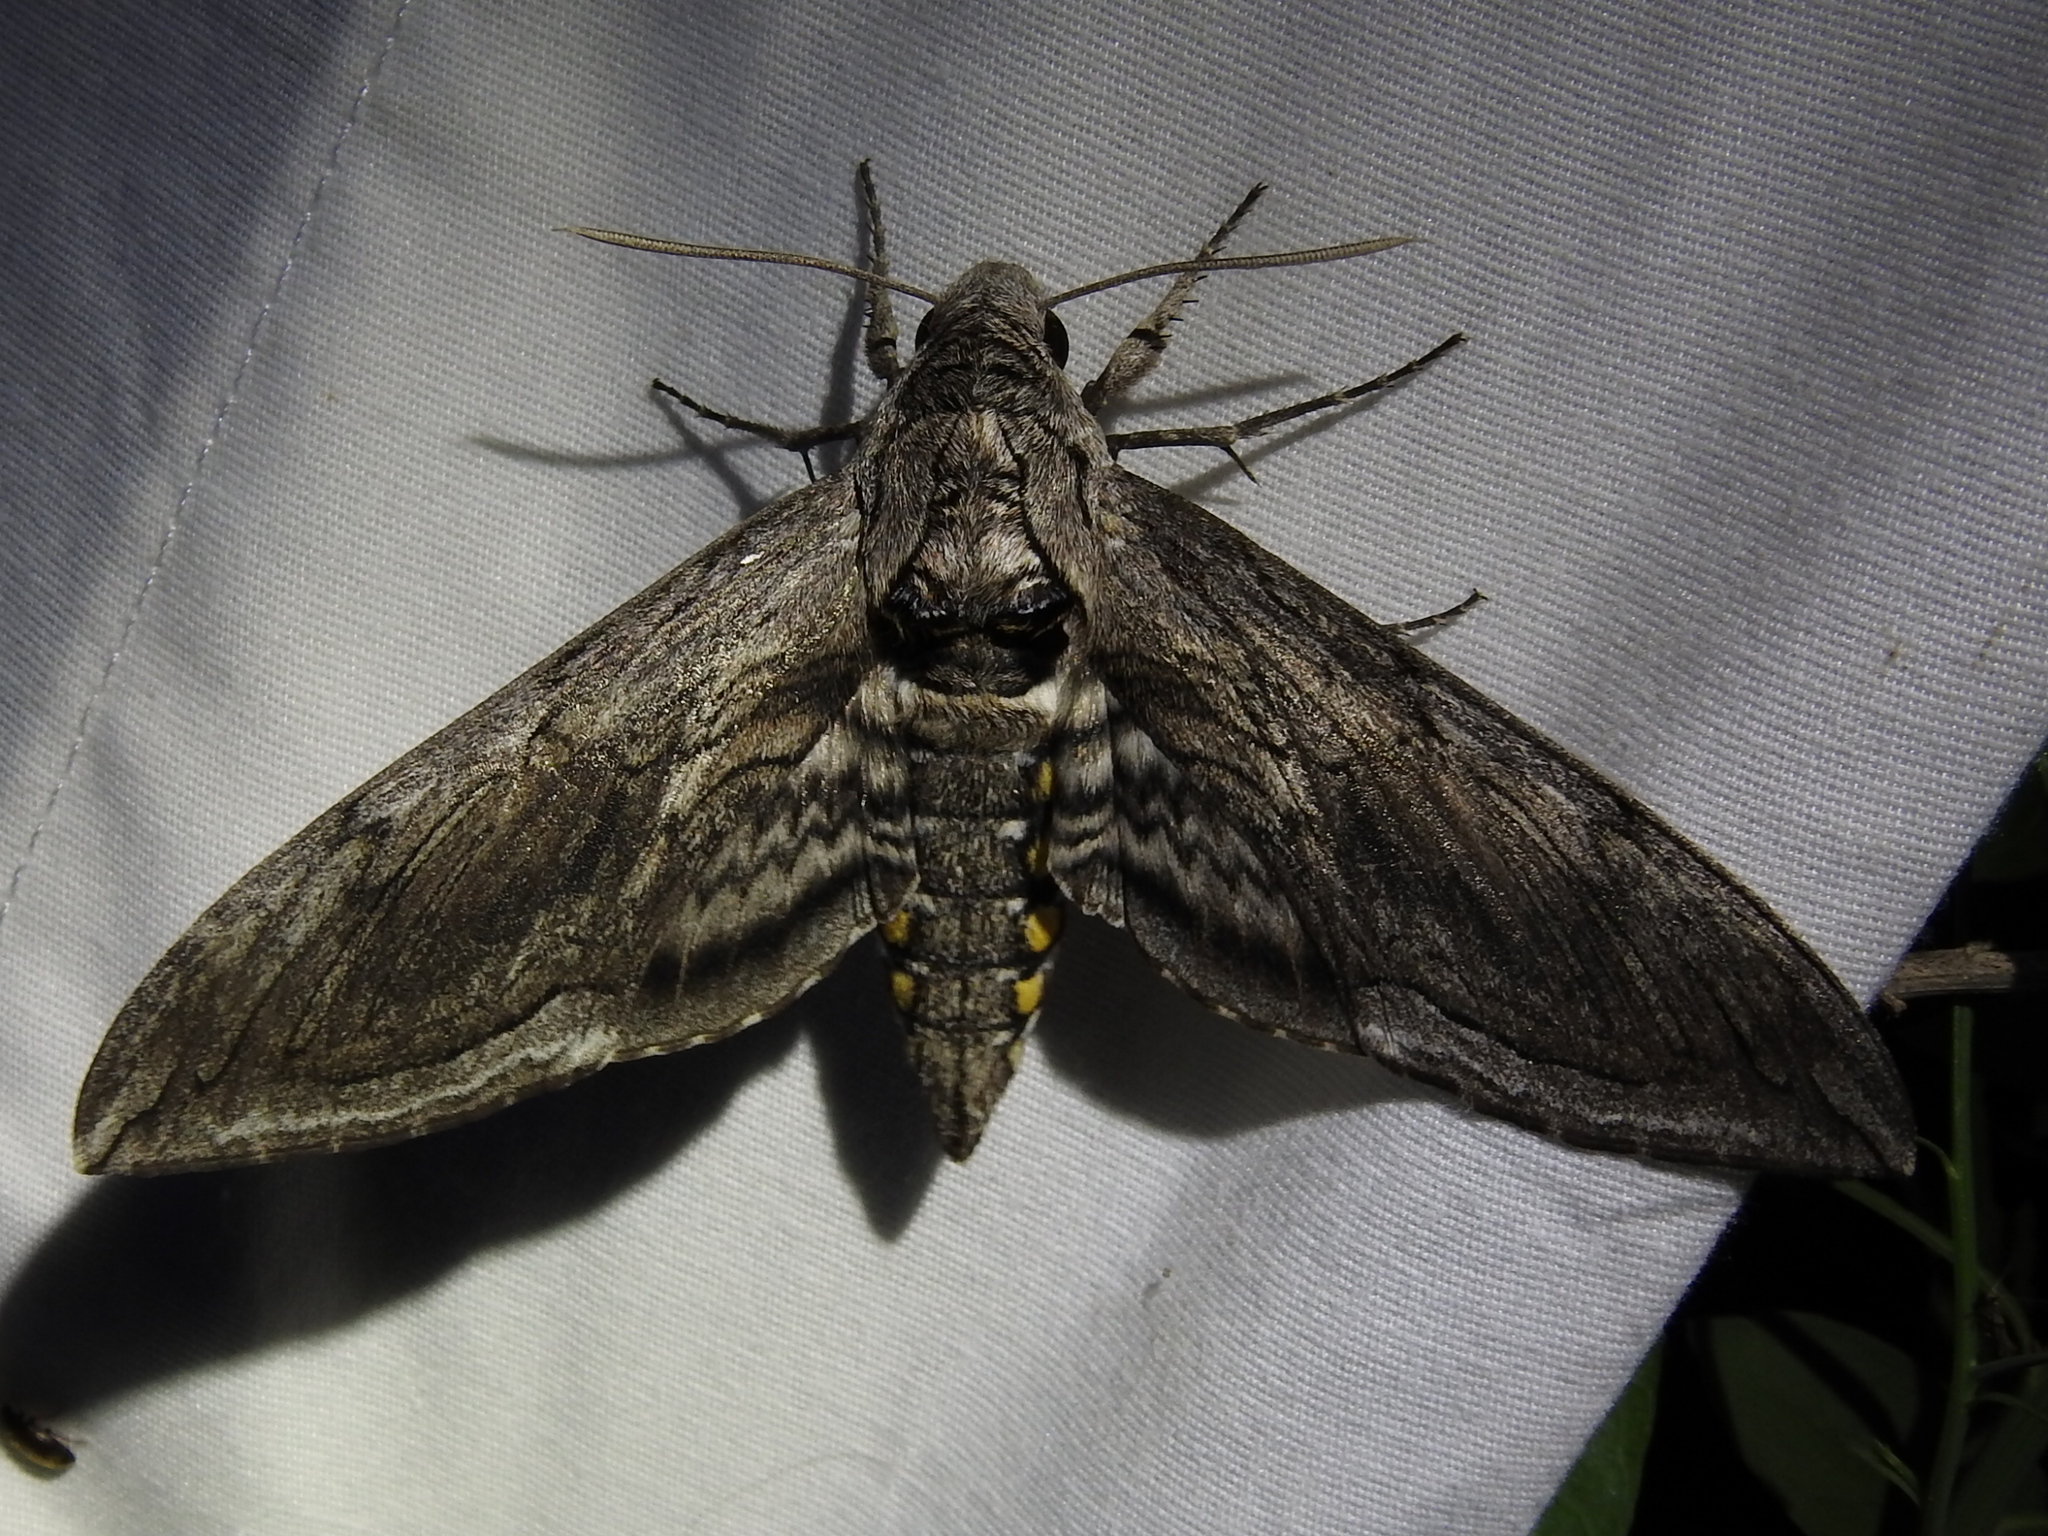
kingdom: Animalia
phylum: Arthropoda
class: Insecta
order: Lepidoptera
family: Sphingidae
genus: Manduca
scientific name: Manduca quinquemaculatus
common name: Five-spotted hawk-moth
